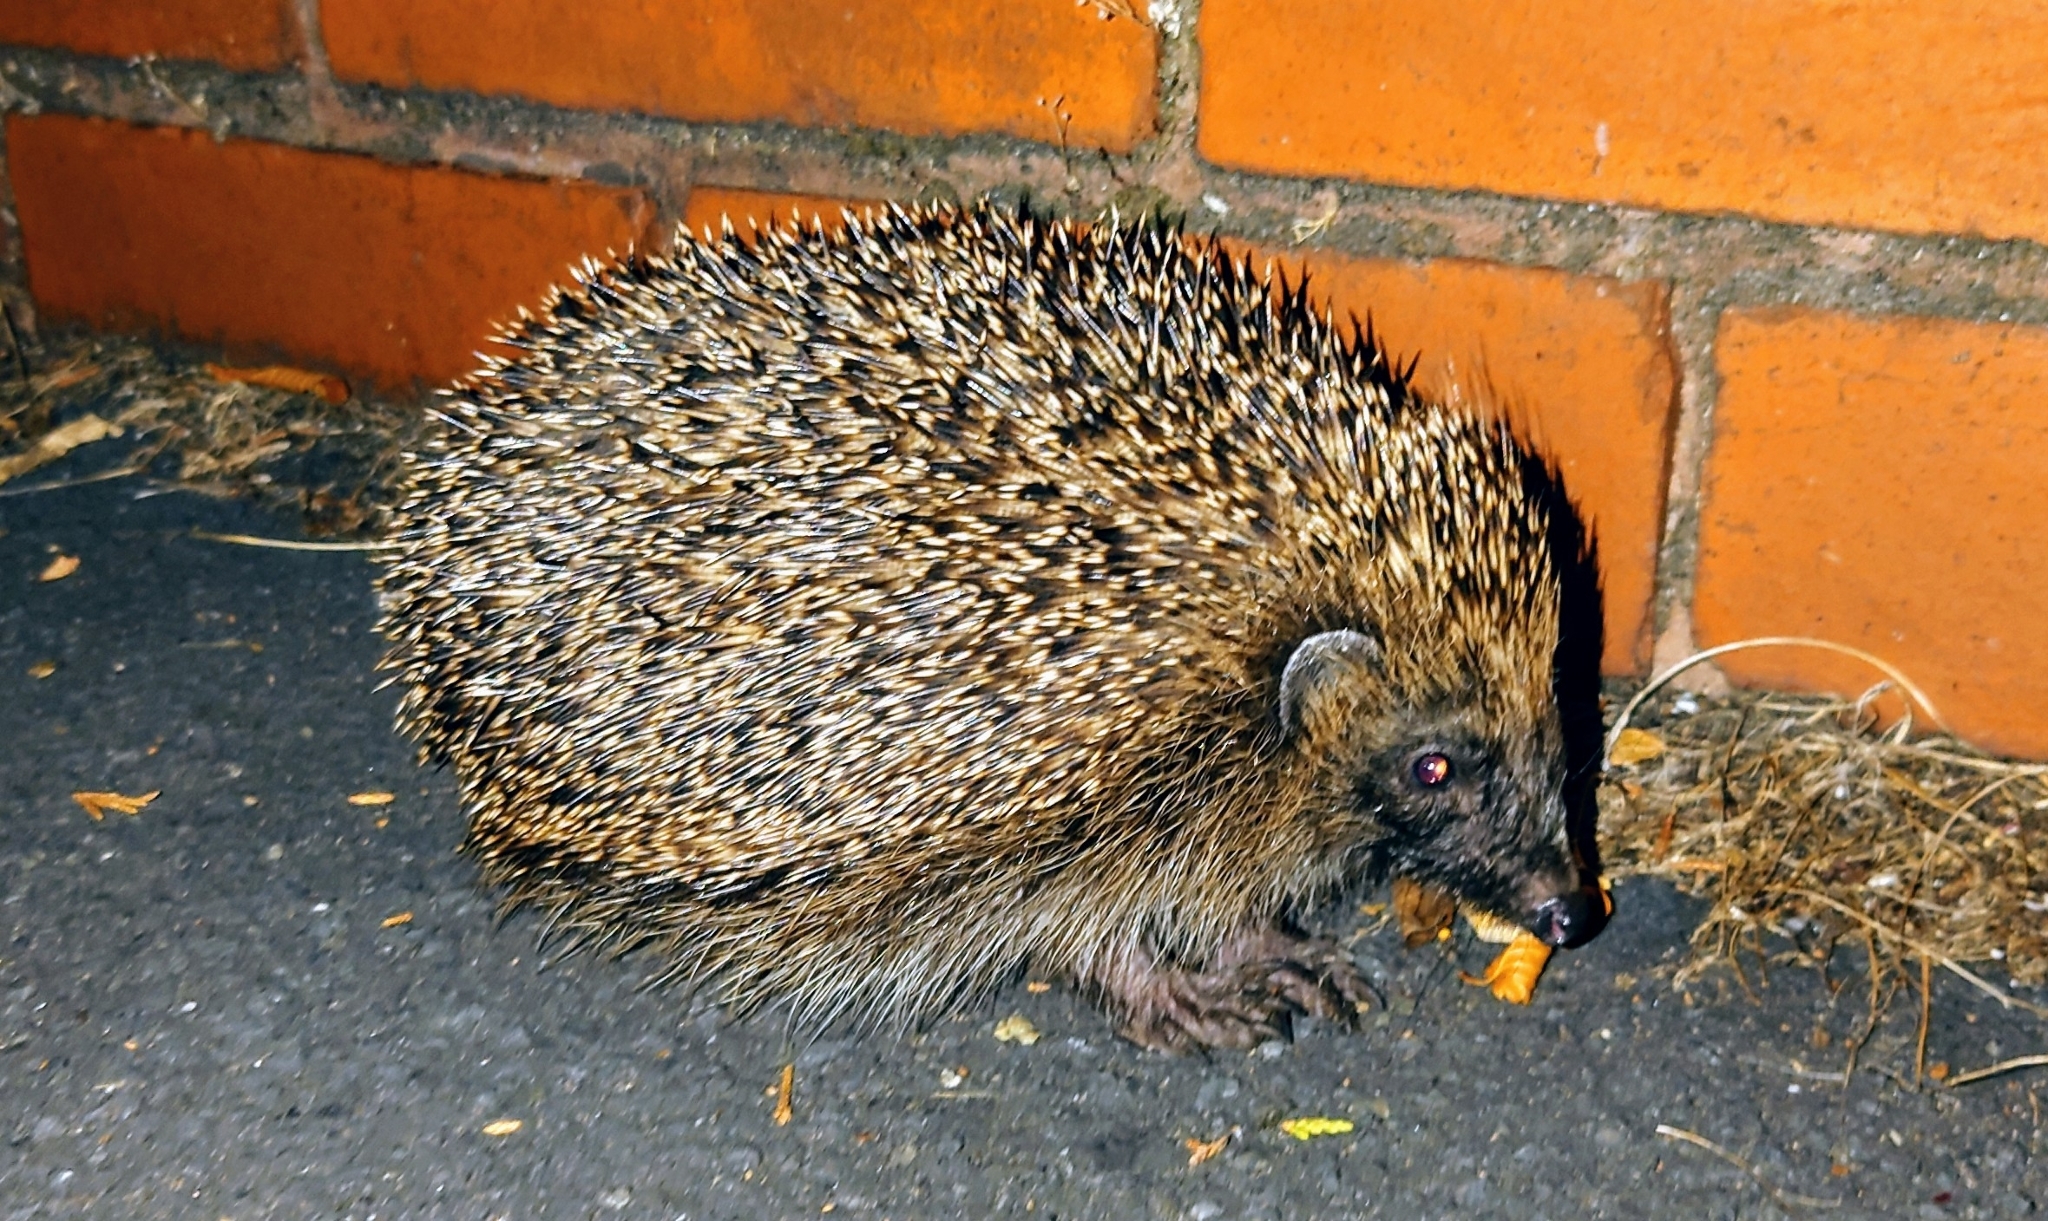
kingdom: Animalia
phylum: Chordata
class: Mammalia
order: Erinaceomorpha
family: Erinaceidae
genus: Erinaceus
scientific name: Erinaceus europaeus
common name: West european hedgehog
